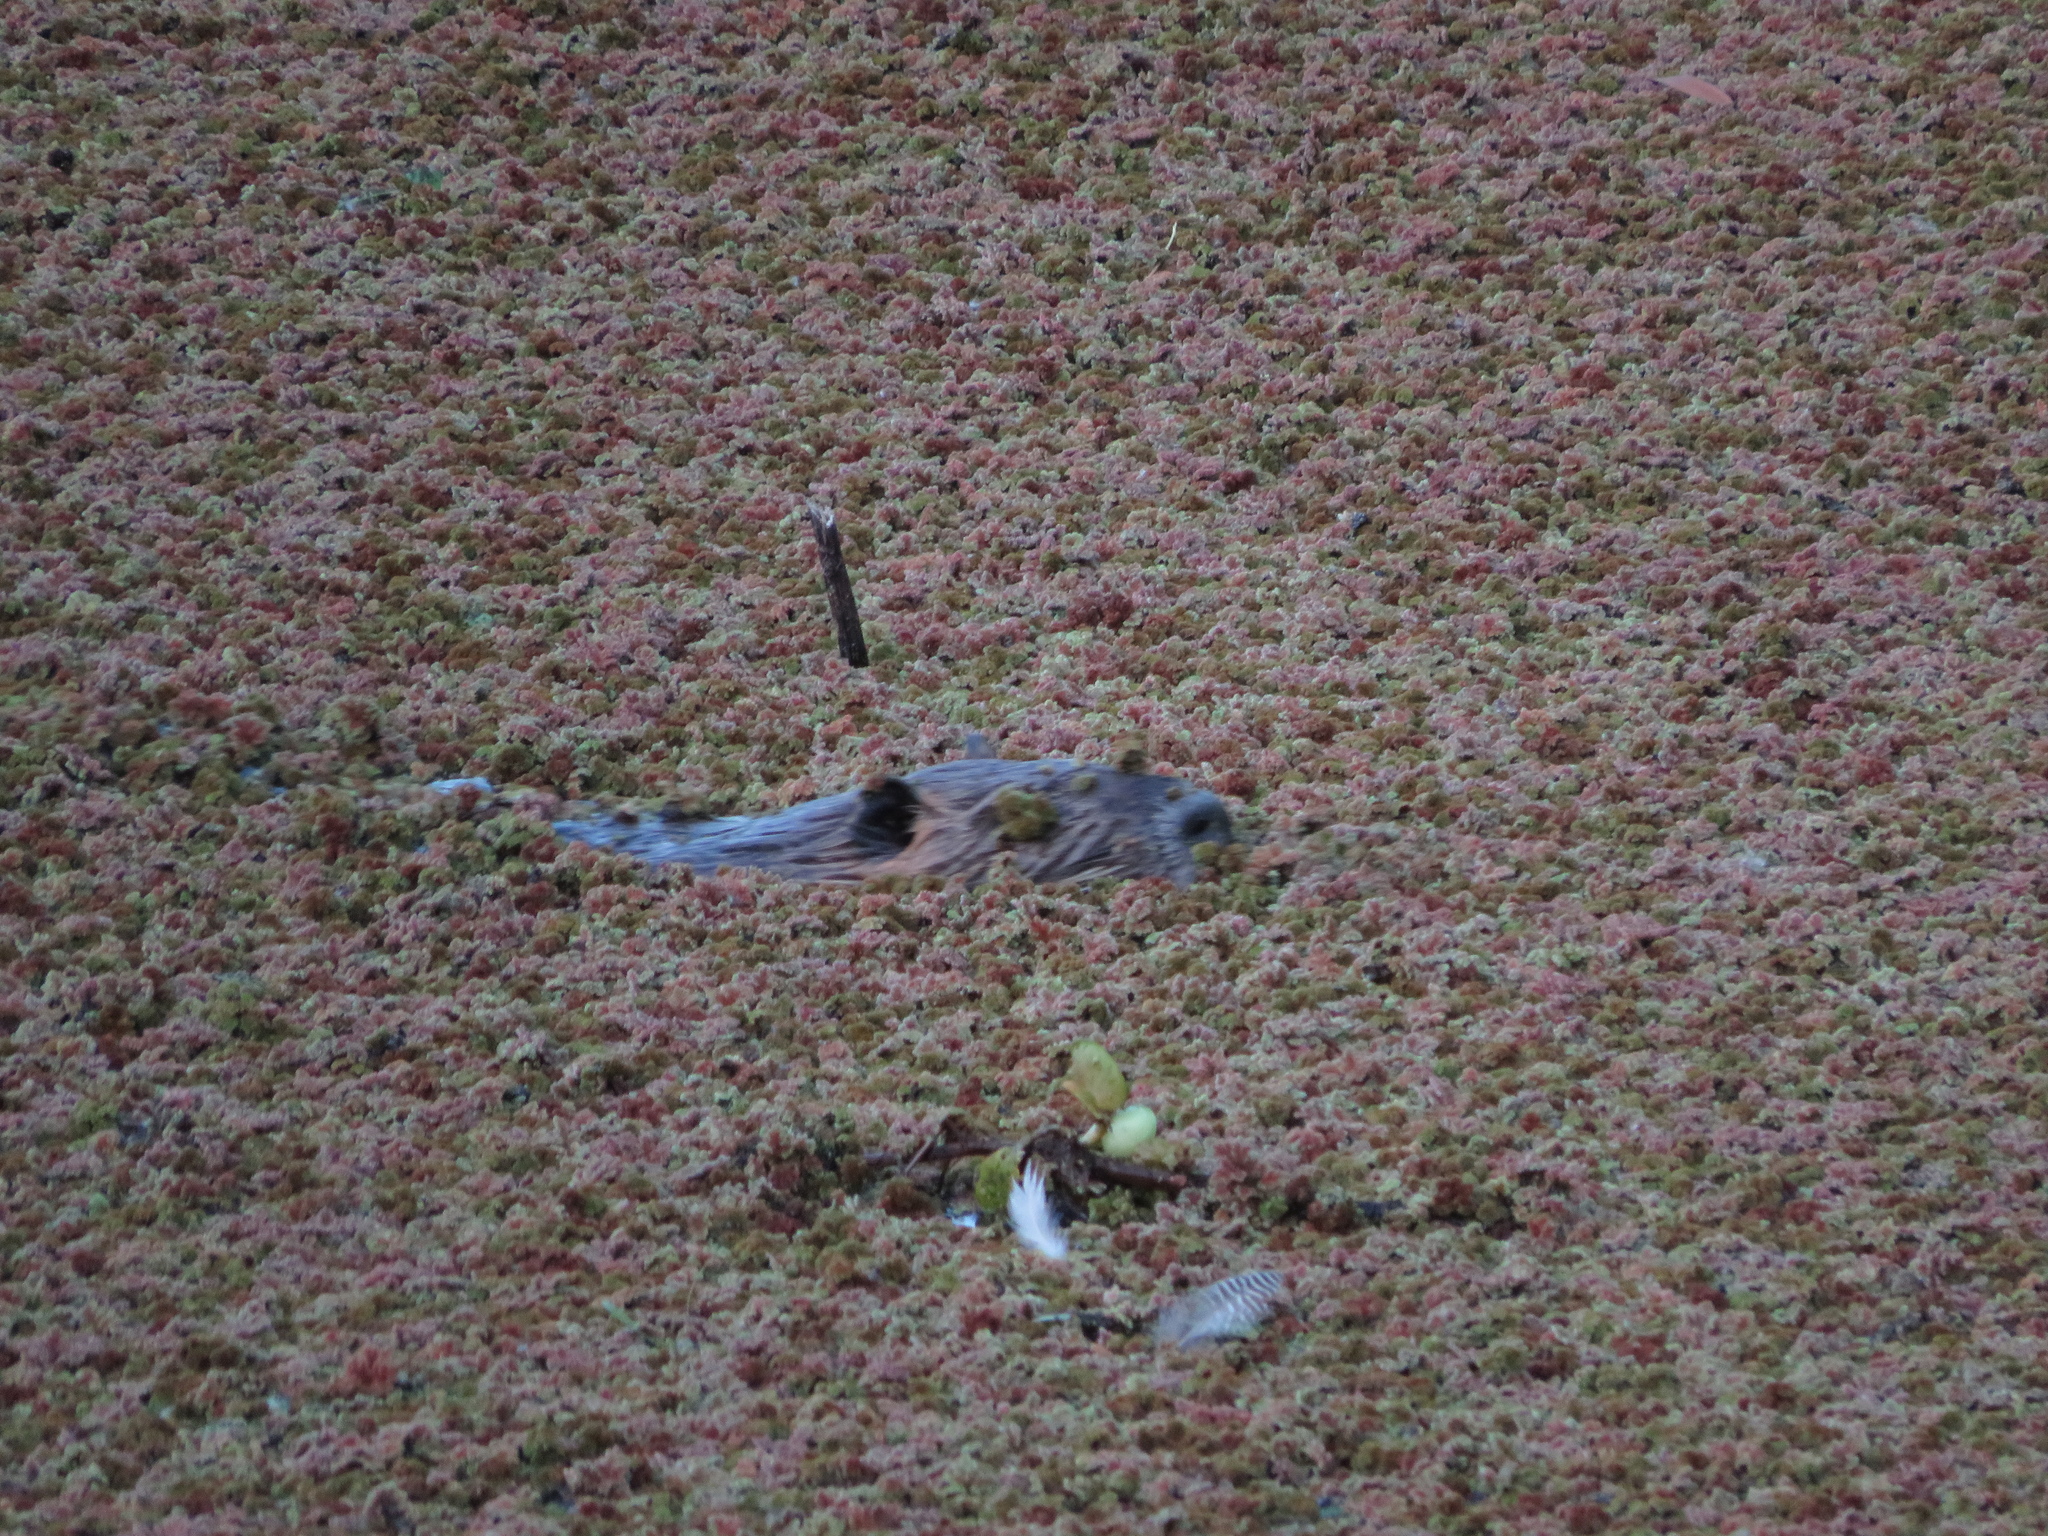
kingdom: Animalia
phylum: Chordata
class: Mammalia
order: Rodentia
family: Myocastoridae
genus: Myocastor
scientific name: Myocastor coypus
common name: Coypu
